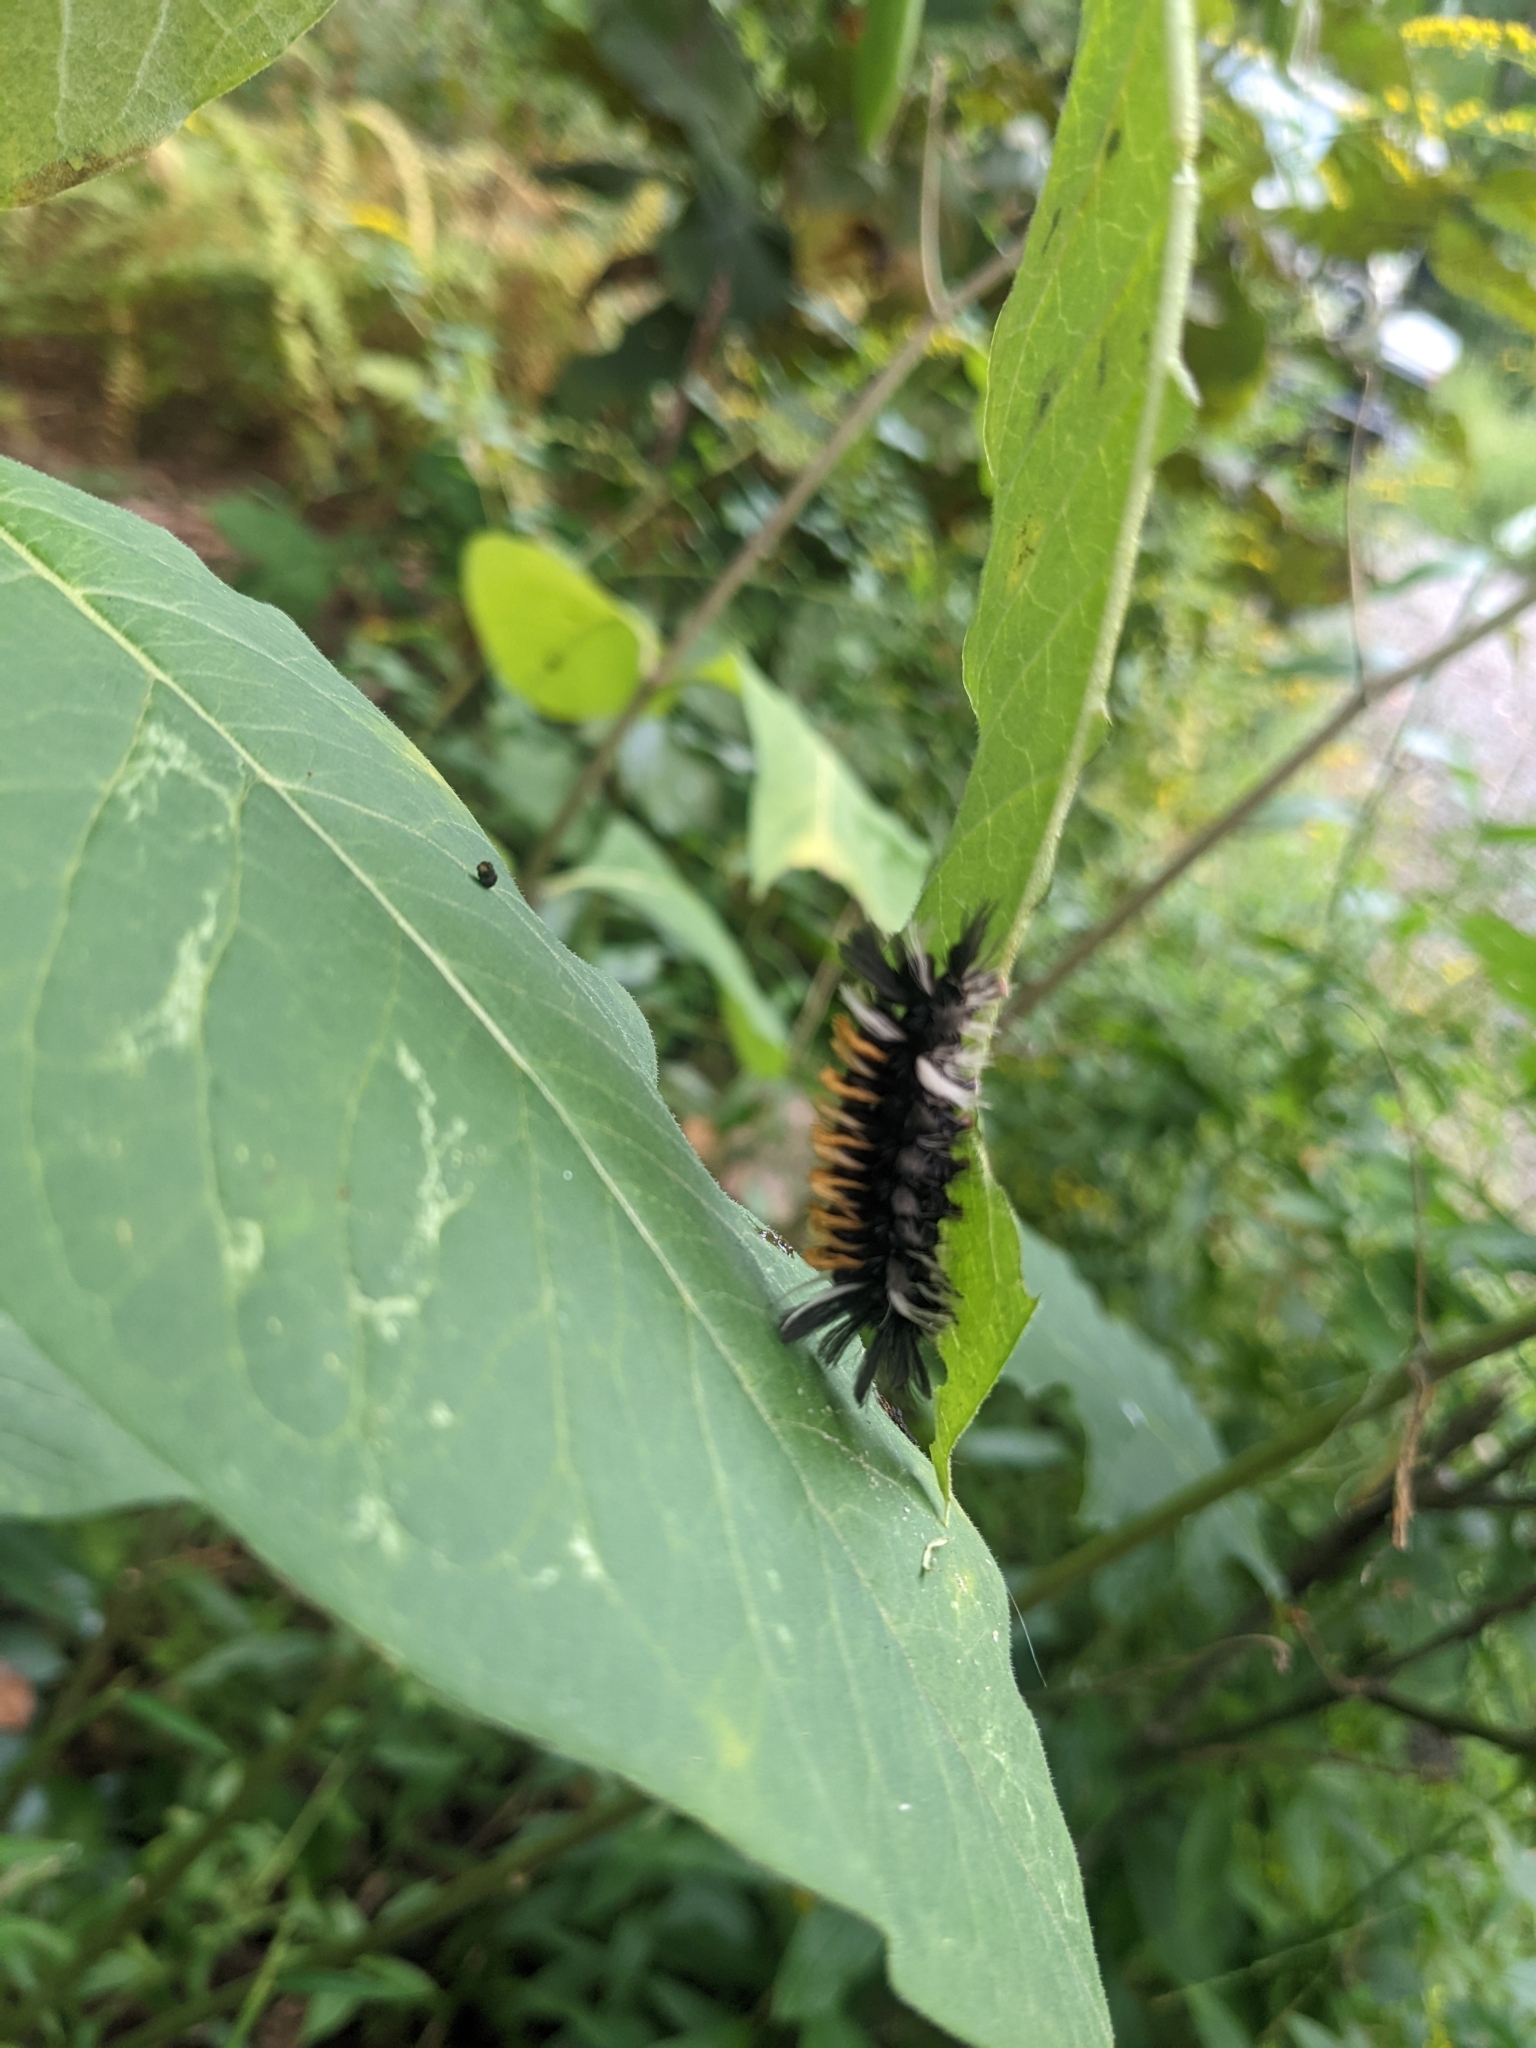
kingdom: Animalia
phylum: Arthropoda
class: Insecta
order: Lepidoptera
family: Erebidae
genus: Euchaetes
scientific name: Euchaetes egle
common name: Milkweed tussock moth
